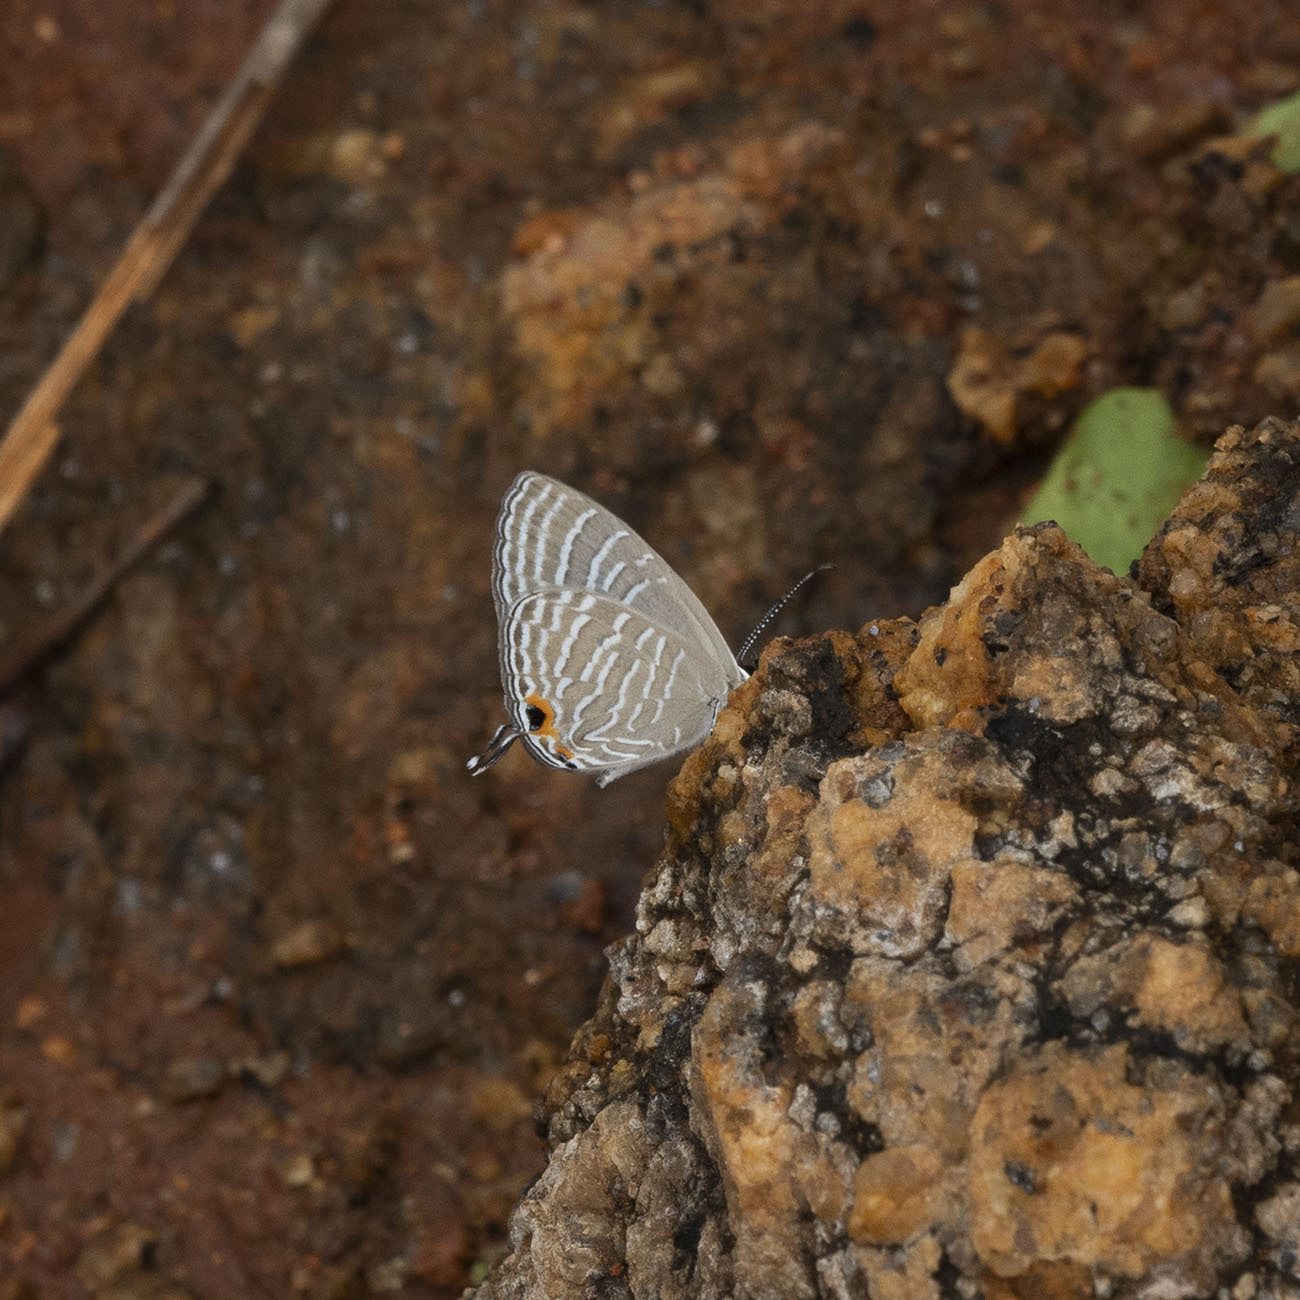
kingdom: Animalia
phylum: Arthropoda
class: Insecta
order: Lepidoptera
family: Lycaenidae
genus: Jamides
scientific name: Jamides celeno
